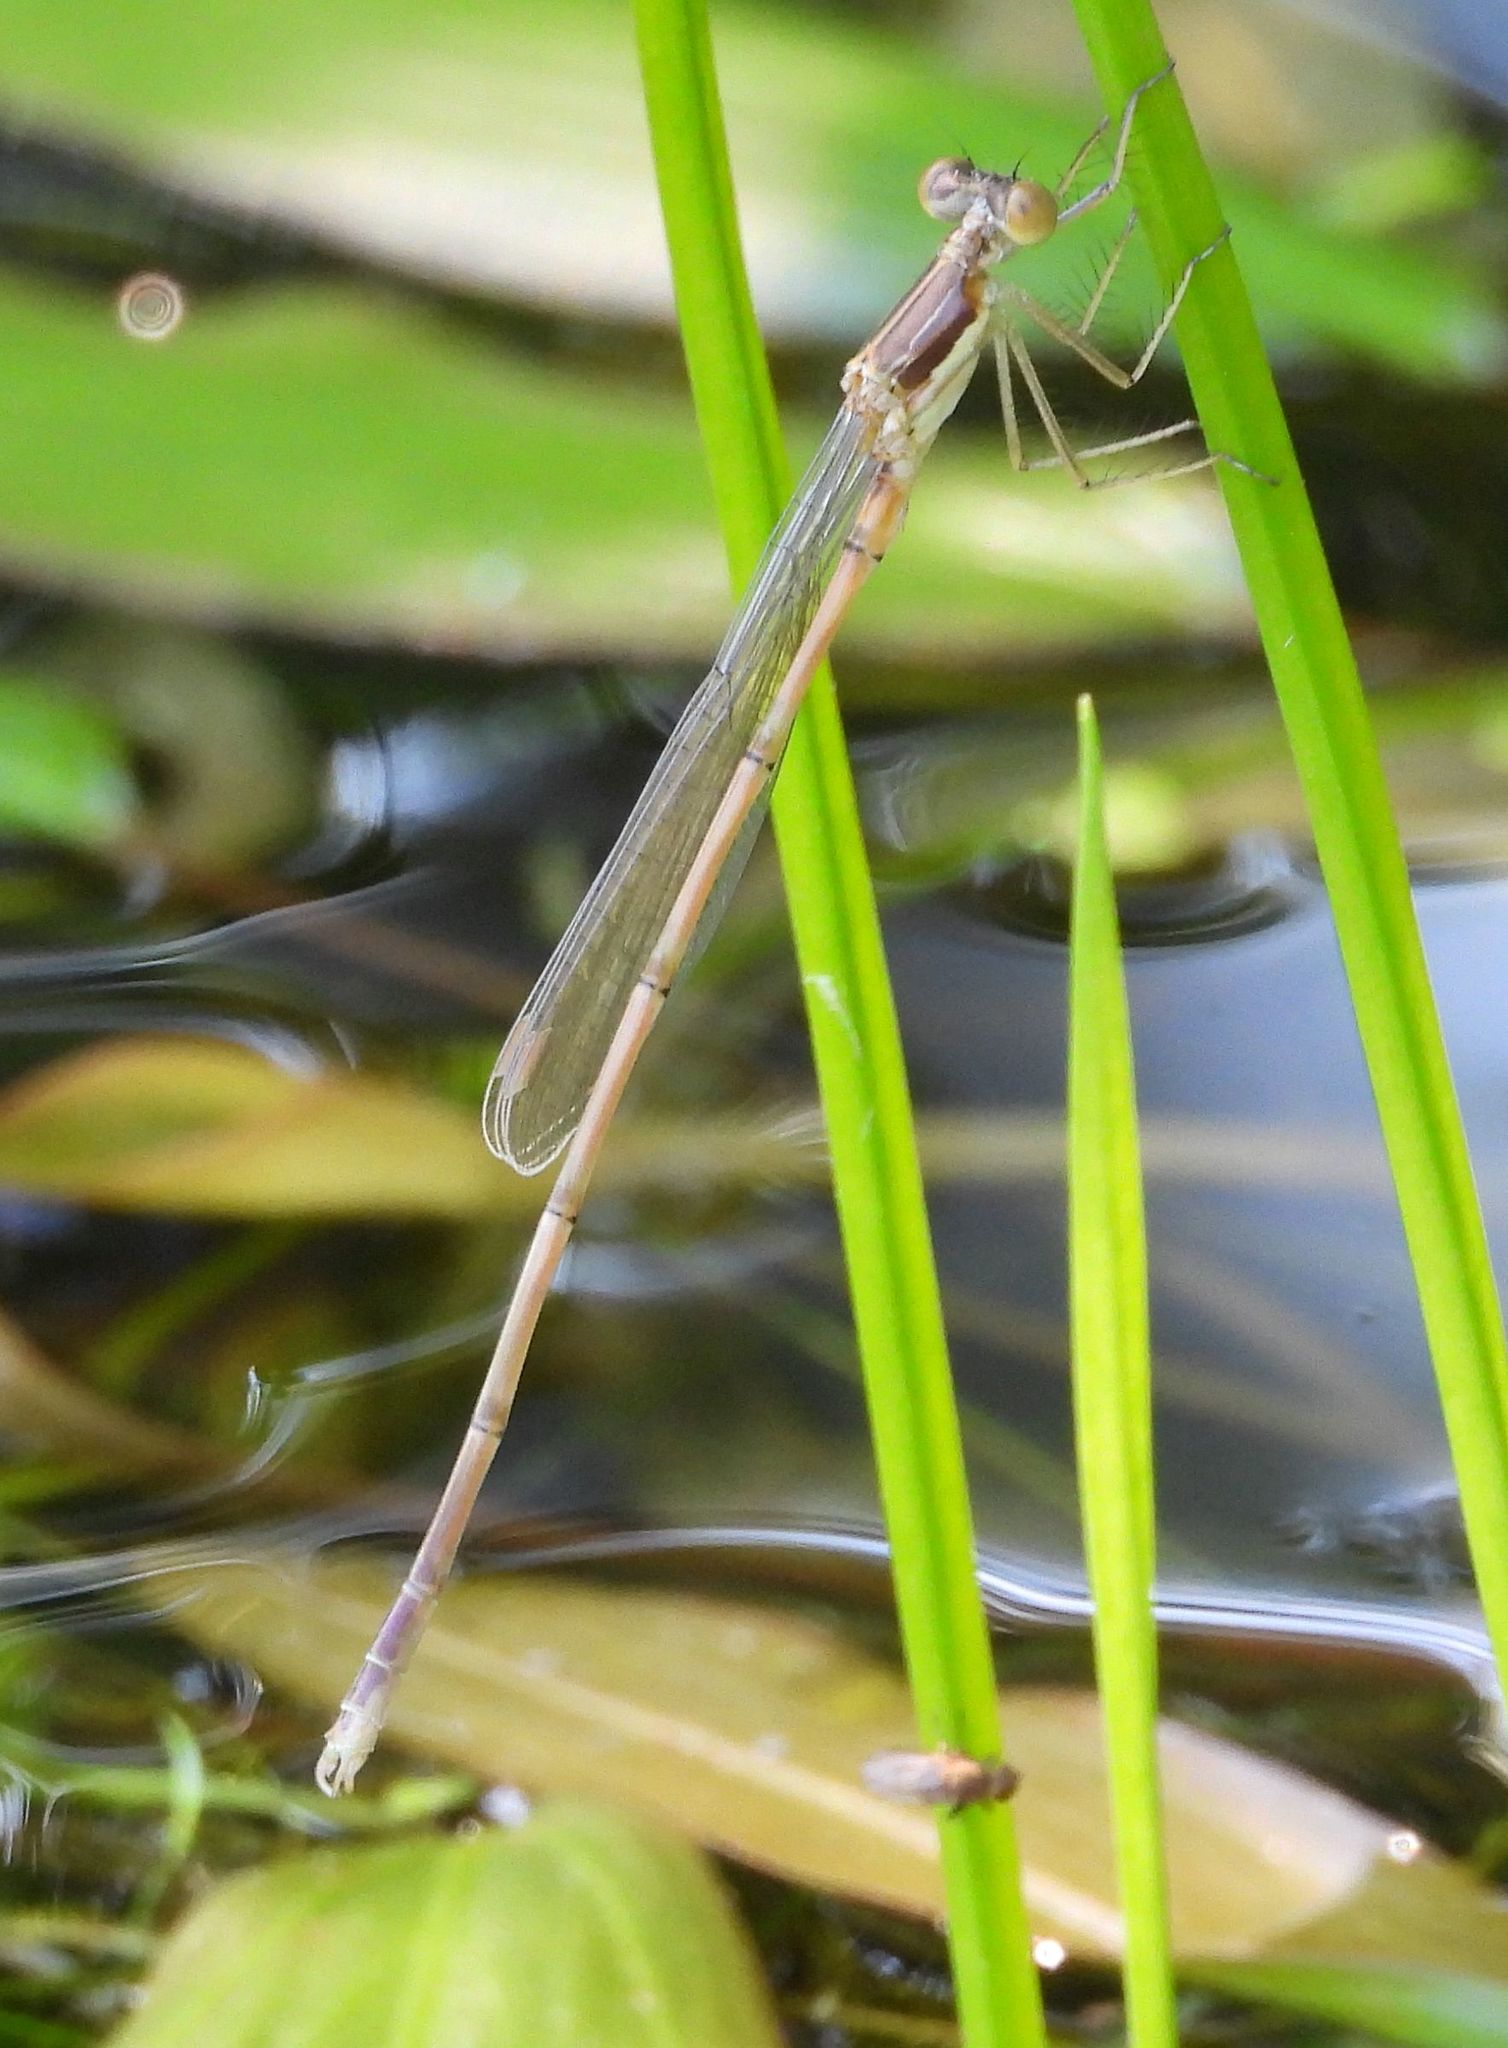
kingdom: Animalia
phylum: Arthropoda
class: Insecta
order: Odonata
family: Lestidae
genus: Lestes
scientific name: Lestes rectangularis
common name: Slender spreadwing
